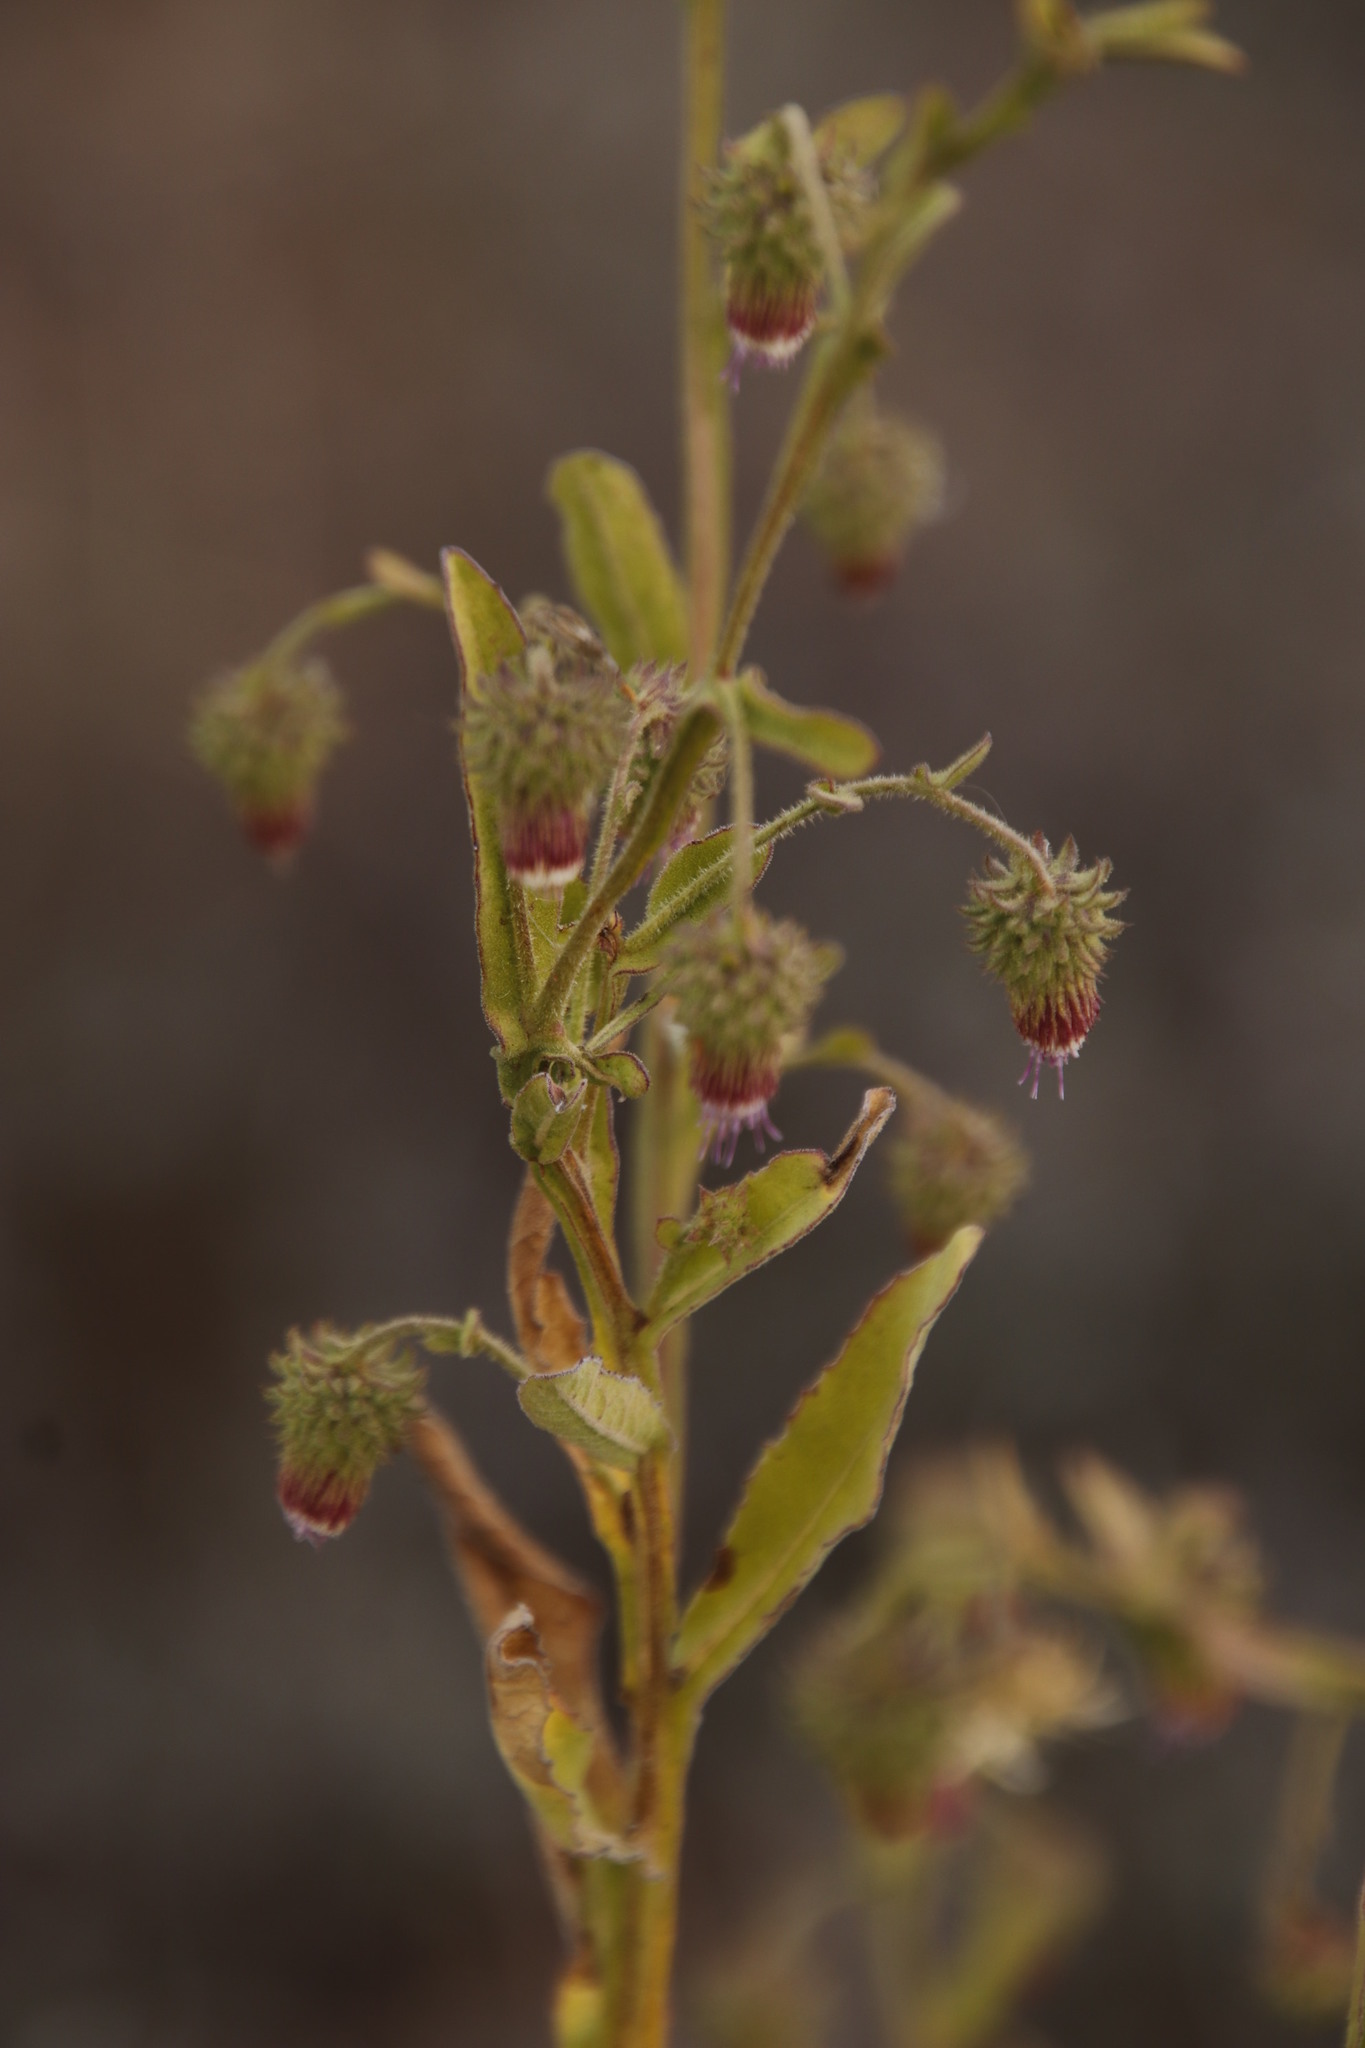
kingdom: Plantae
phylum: Tracheophyta
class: Magnoliopsida
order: Asterales
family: Asteraceae
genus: Laggera
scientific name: Laggera crispata
